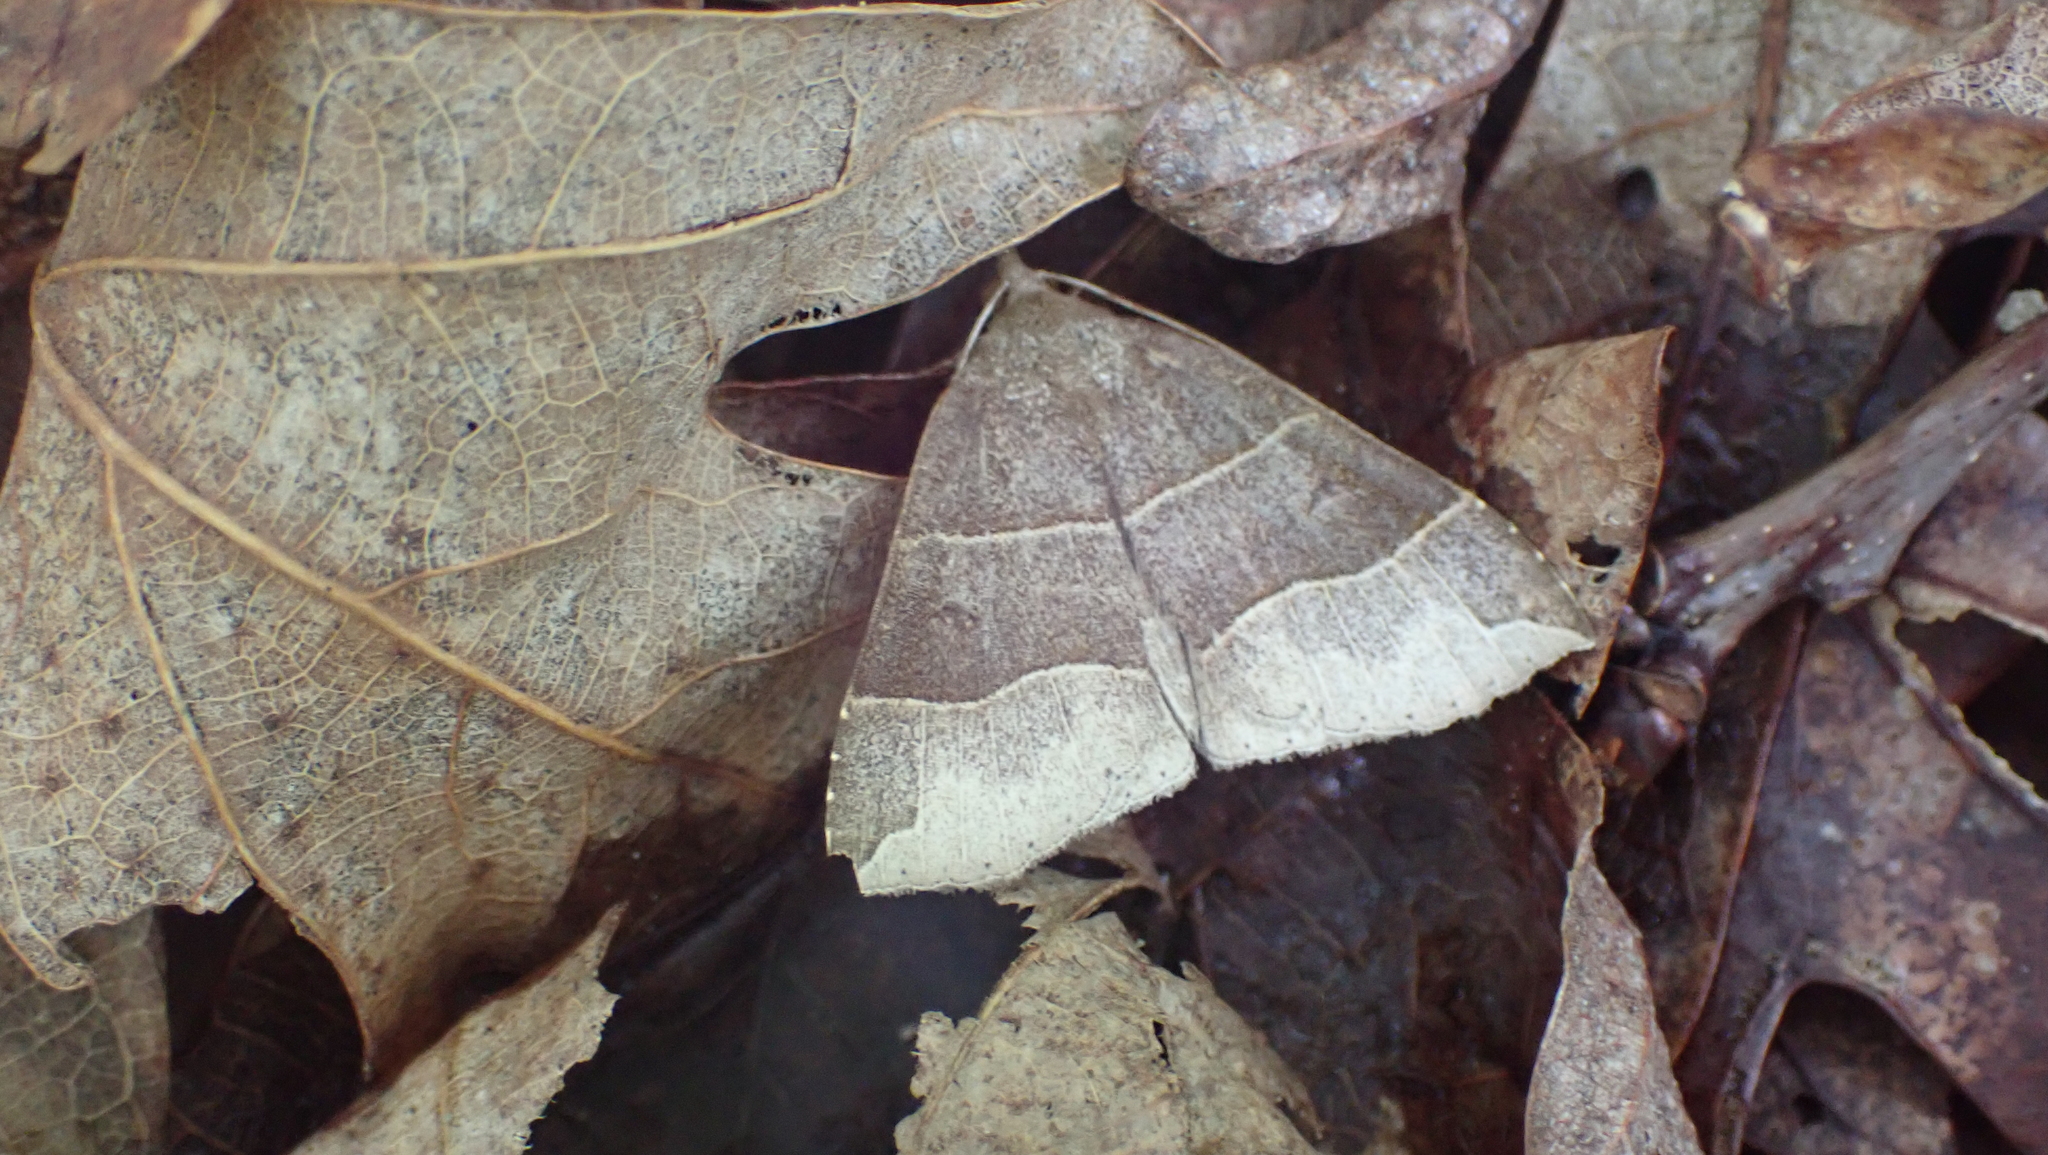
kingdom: Animalia
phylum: Arthropoda
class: Insecta
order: Lepidoptera
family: Erebidae
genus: Parallelia
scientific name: Parallelia bistriaris
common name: Maple looper moth
